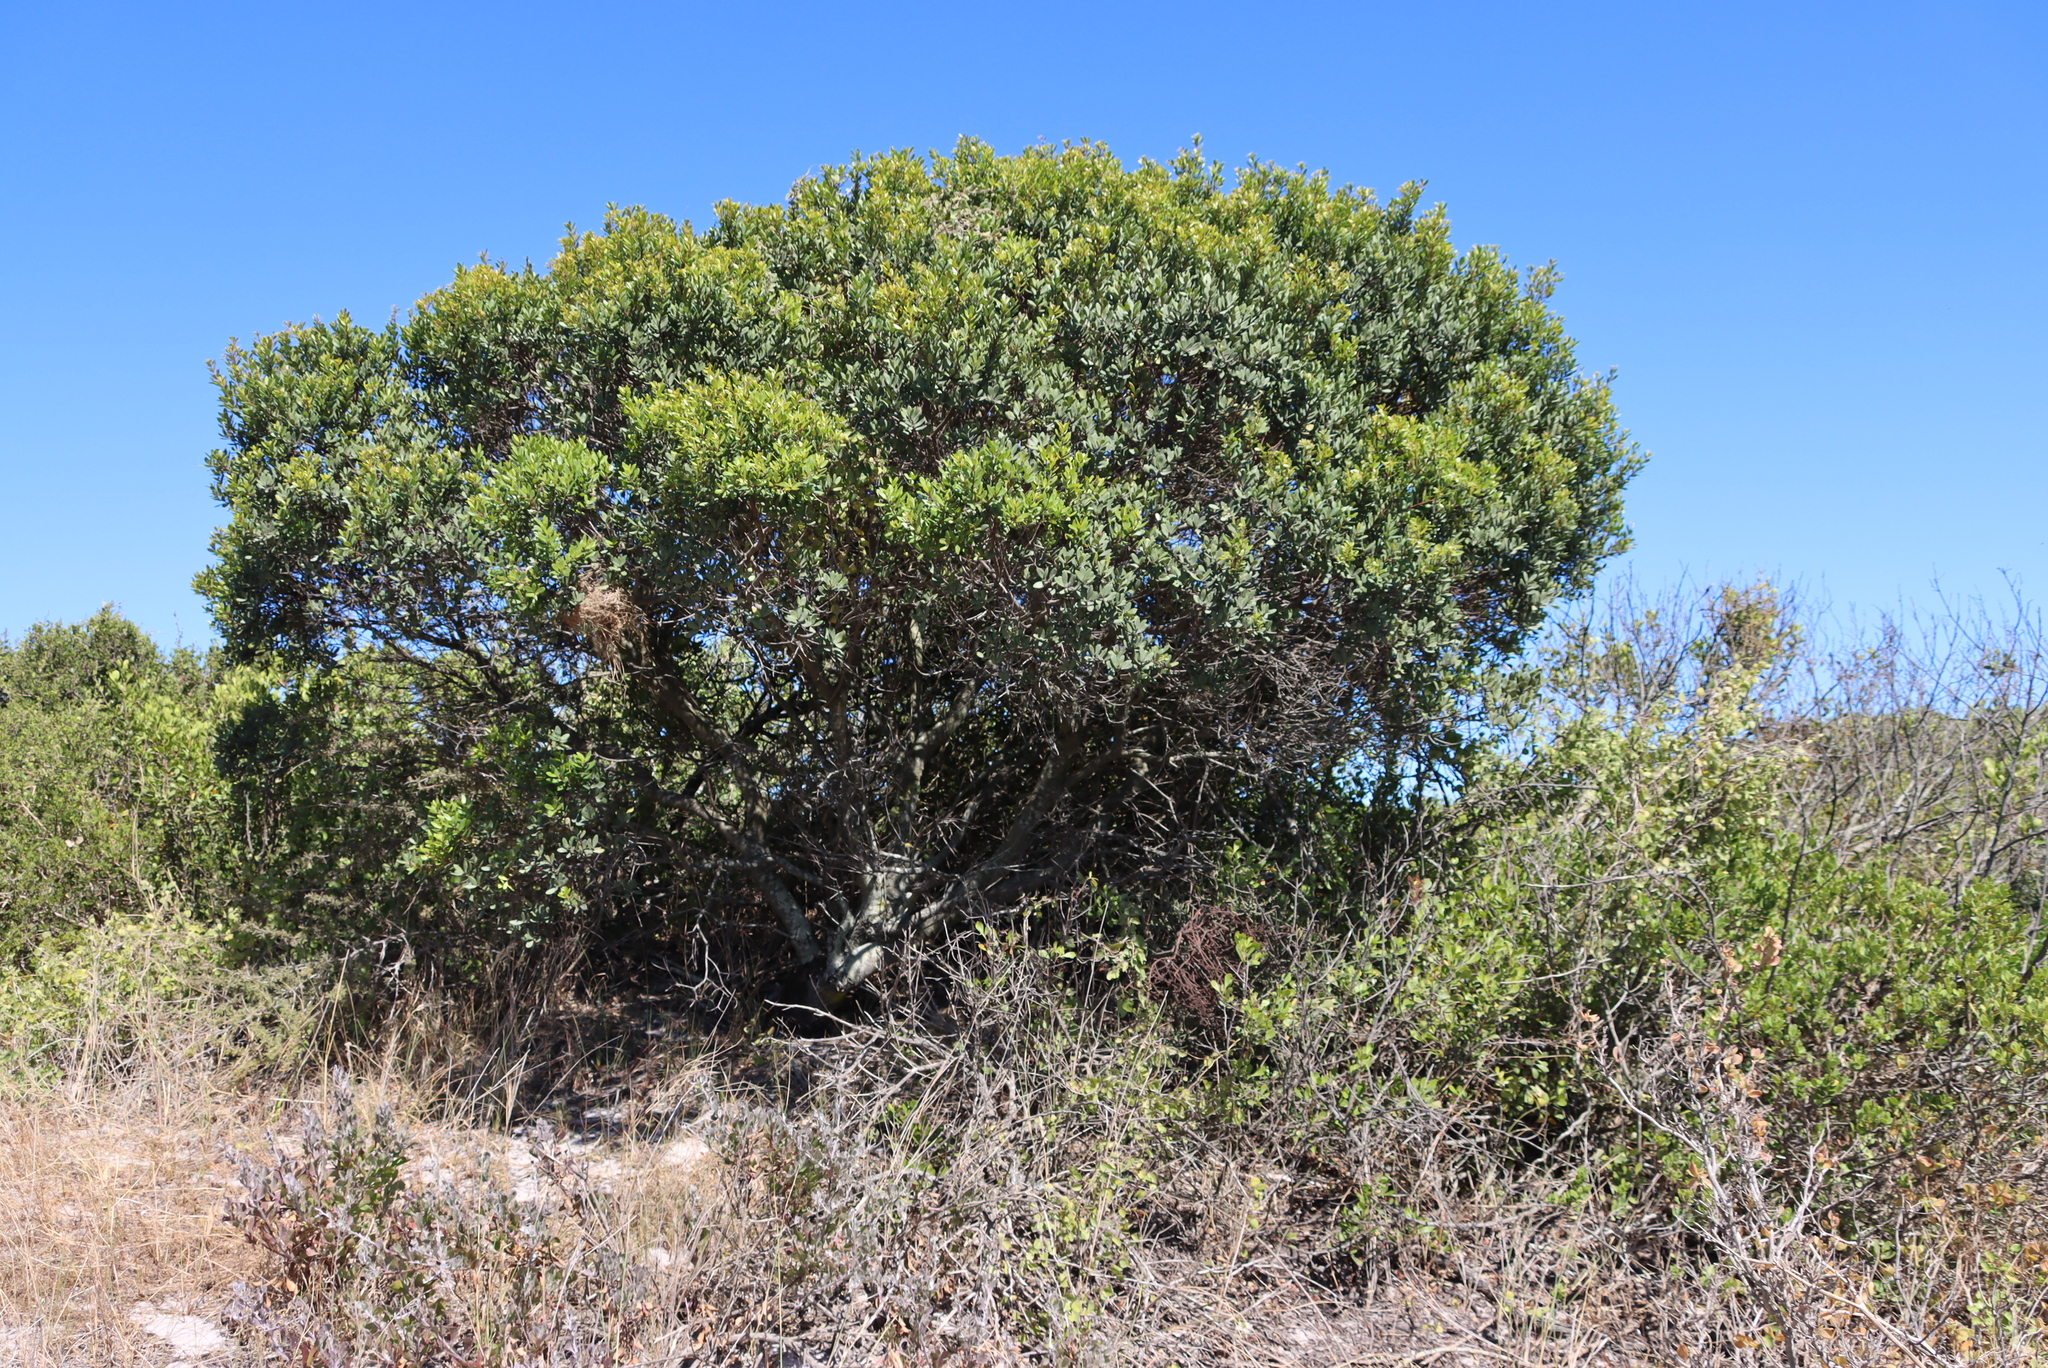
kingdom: Plantae
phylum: Tracheophyta
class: Magnoliopsida
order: Ericales
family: Ebenaceae
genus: Euclea
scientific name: Euclea racemosa
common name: Dune guarri
